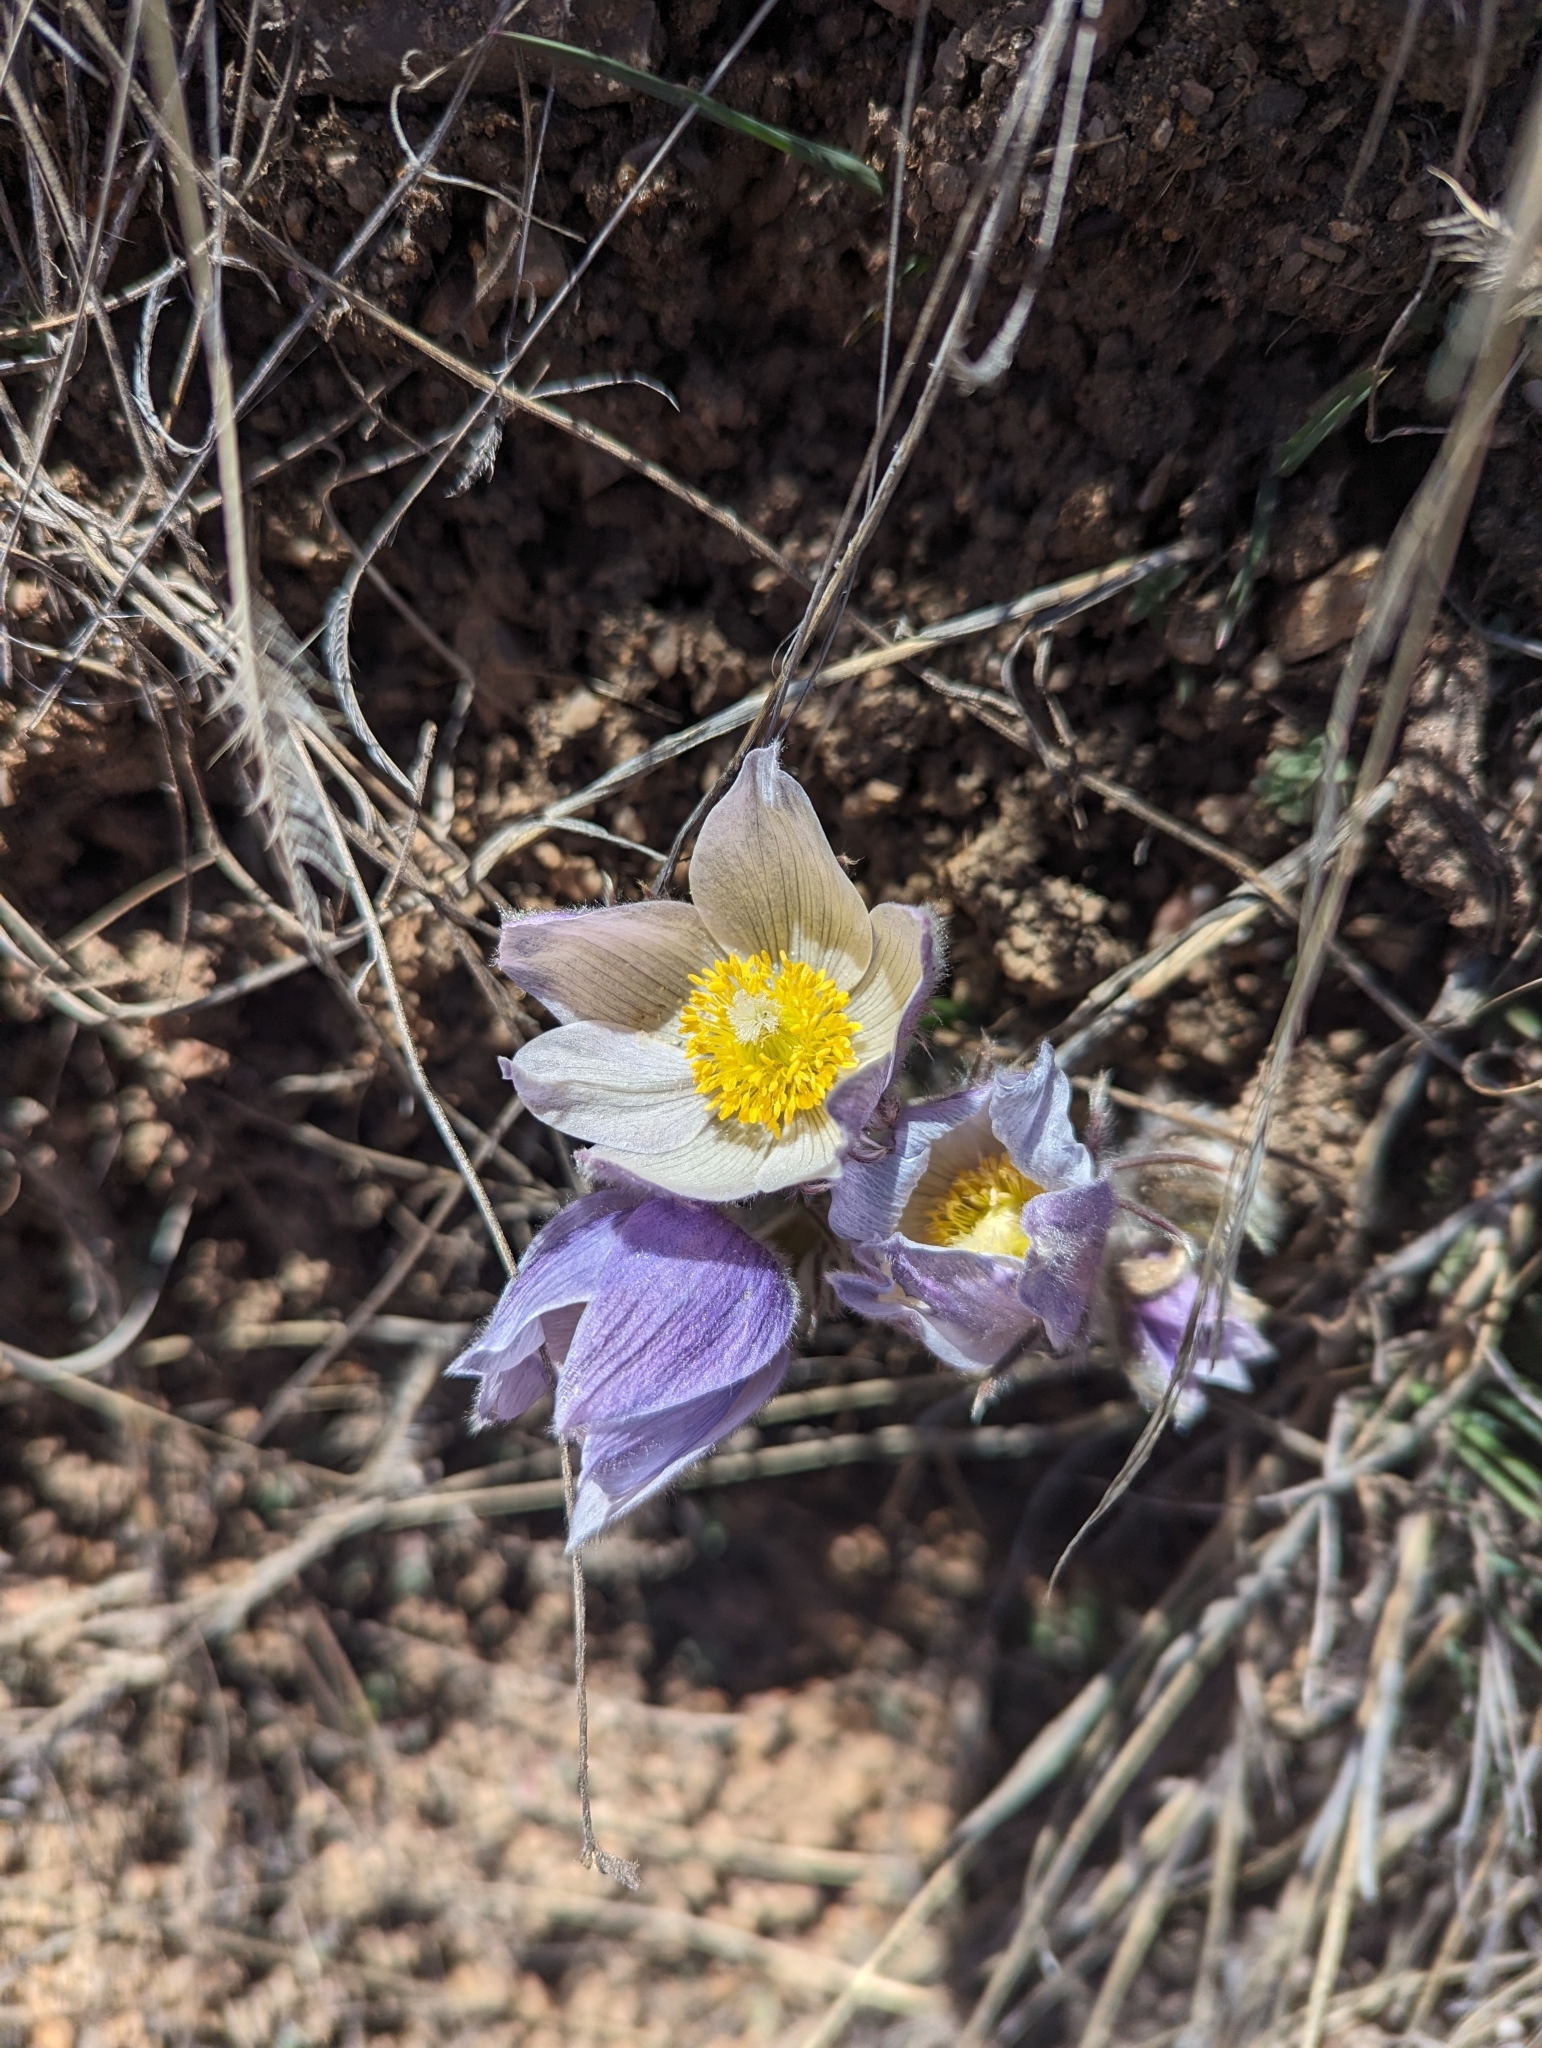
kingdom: Plantae
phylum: Tracheophyta
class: Magnoliopsida
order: Ranunculales
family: Ranunculaceae
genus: Pulsatilla
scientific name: Pulsatilla nuttalliana
